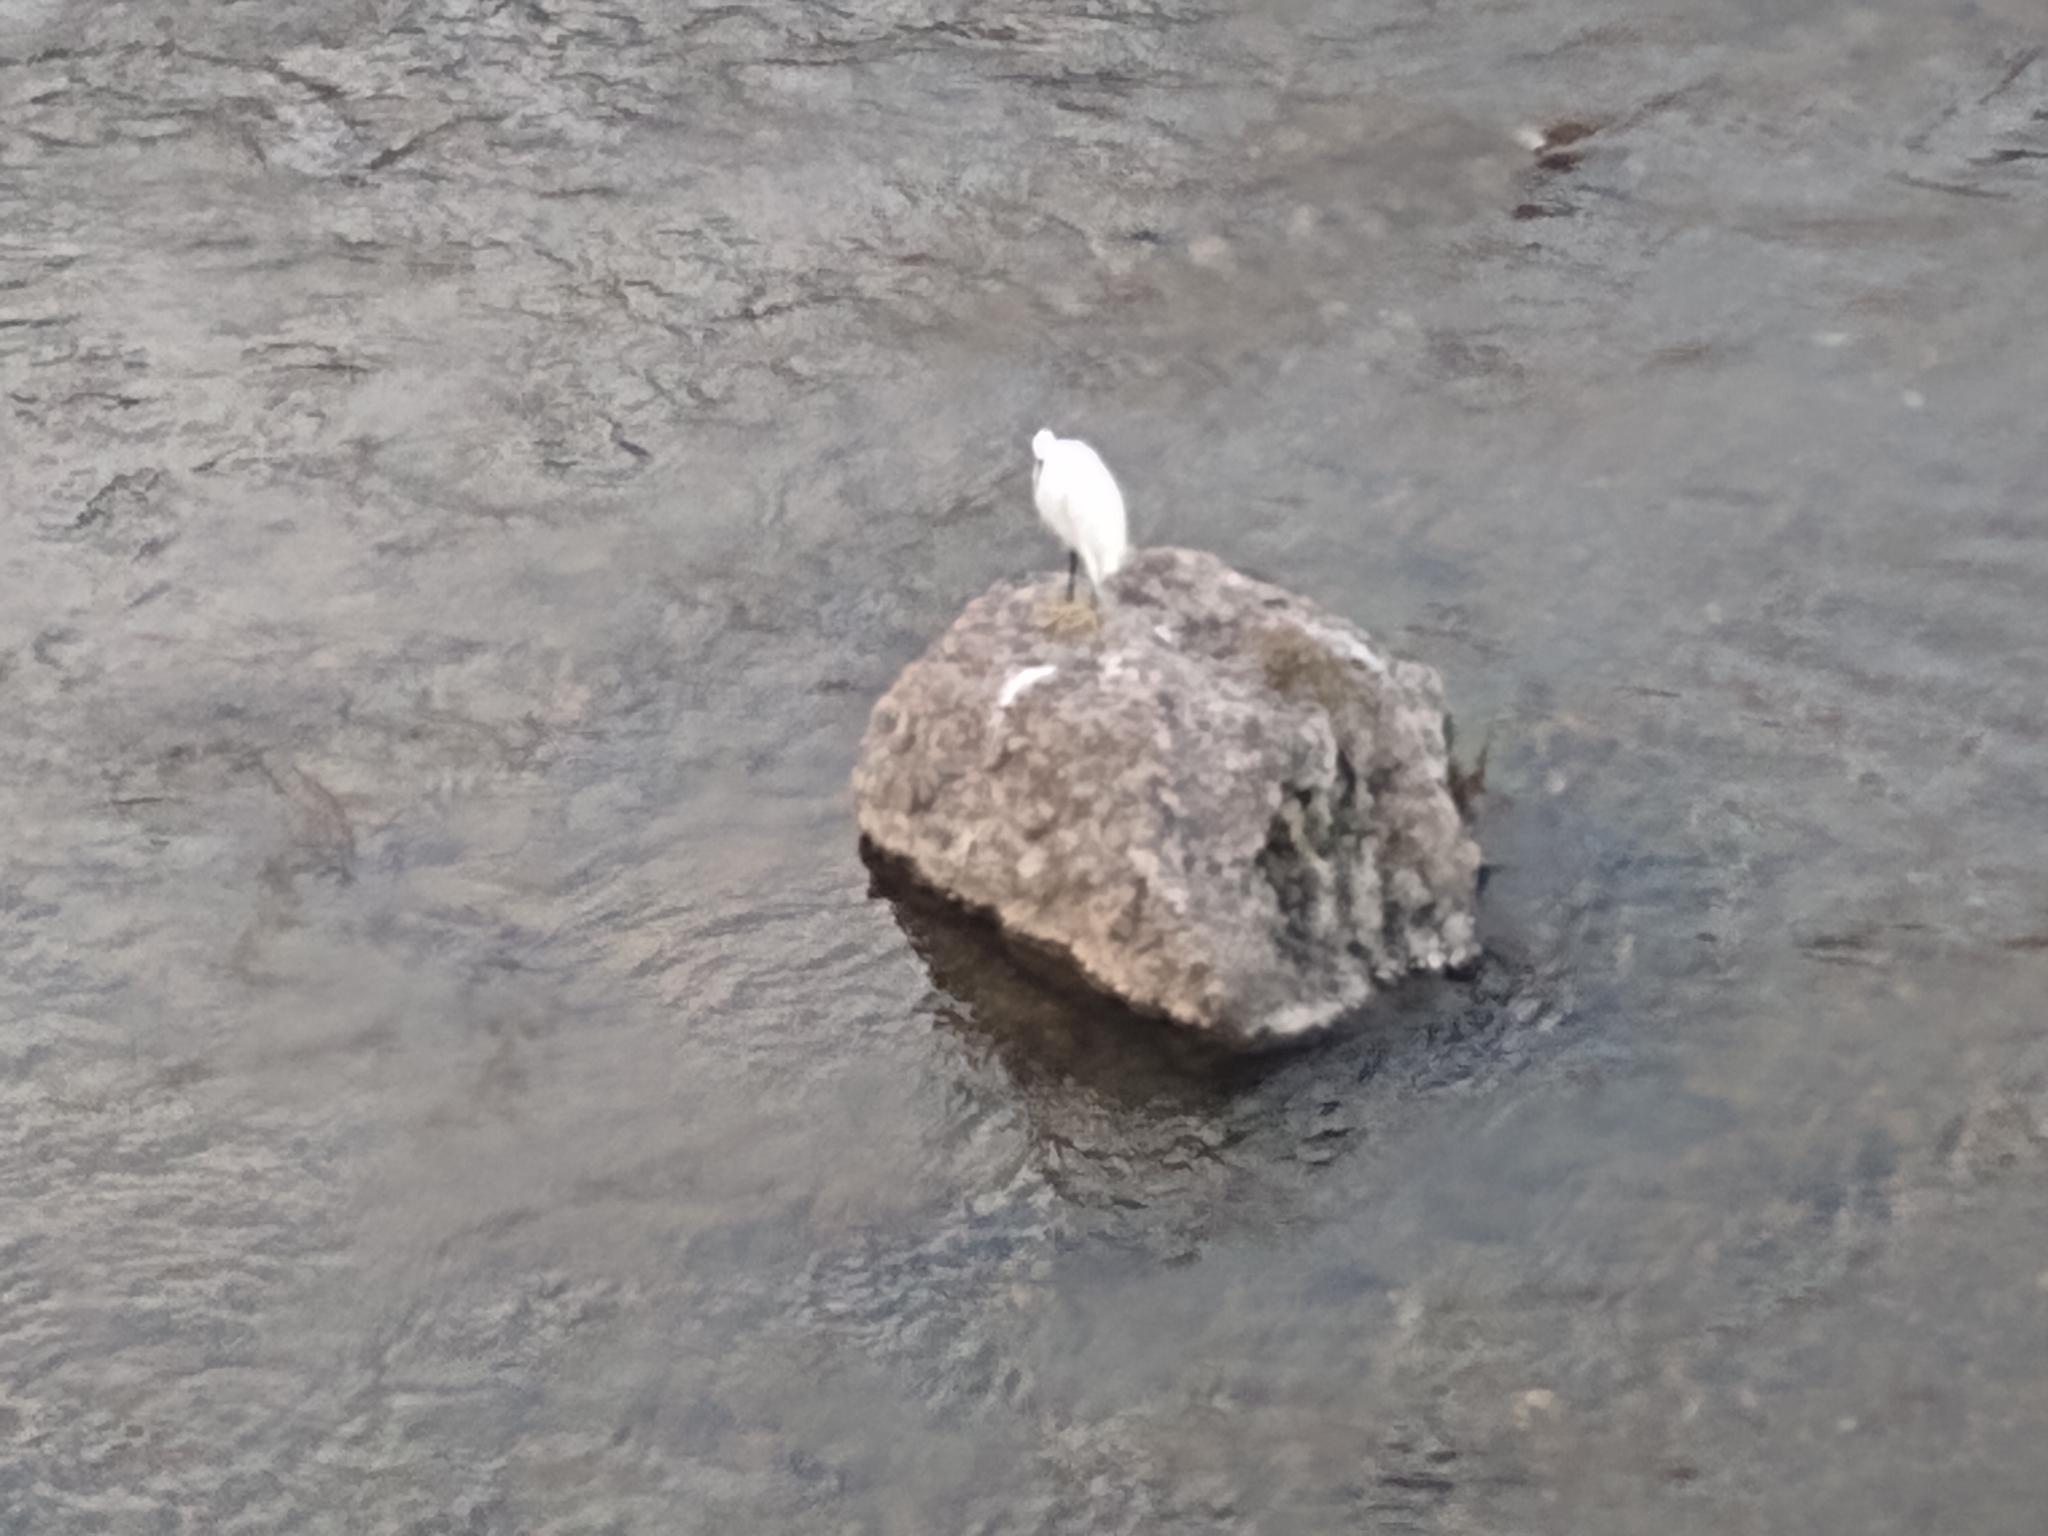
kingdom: Animalia
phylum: Chordata
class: Aves
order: Pelecaniformes
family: Ardeidae
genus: Egretta
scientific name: Egretta garzetta
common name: Little egret
